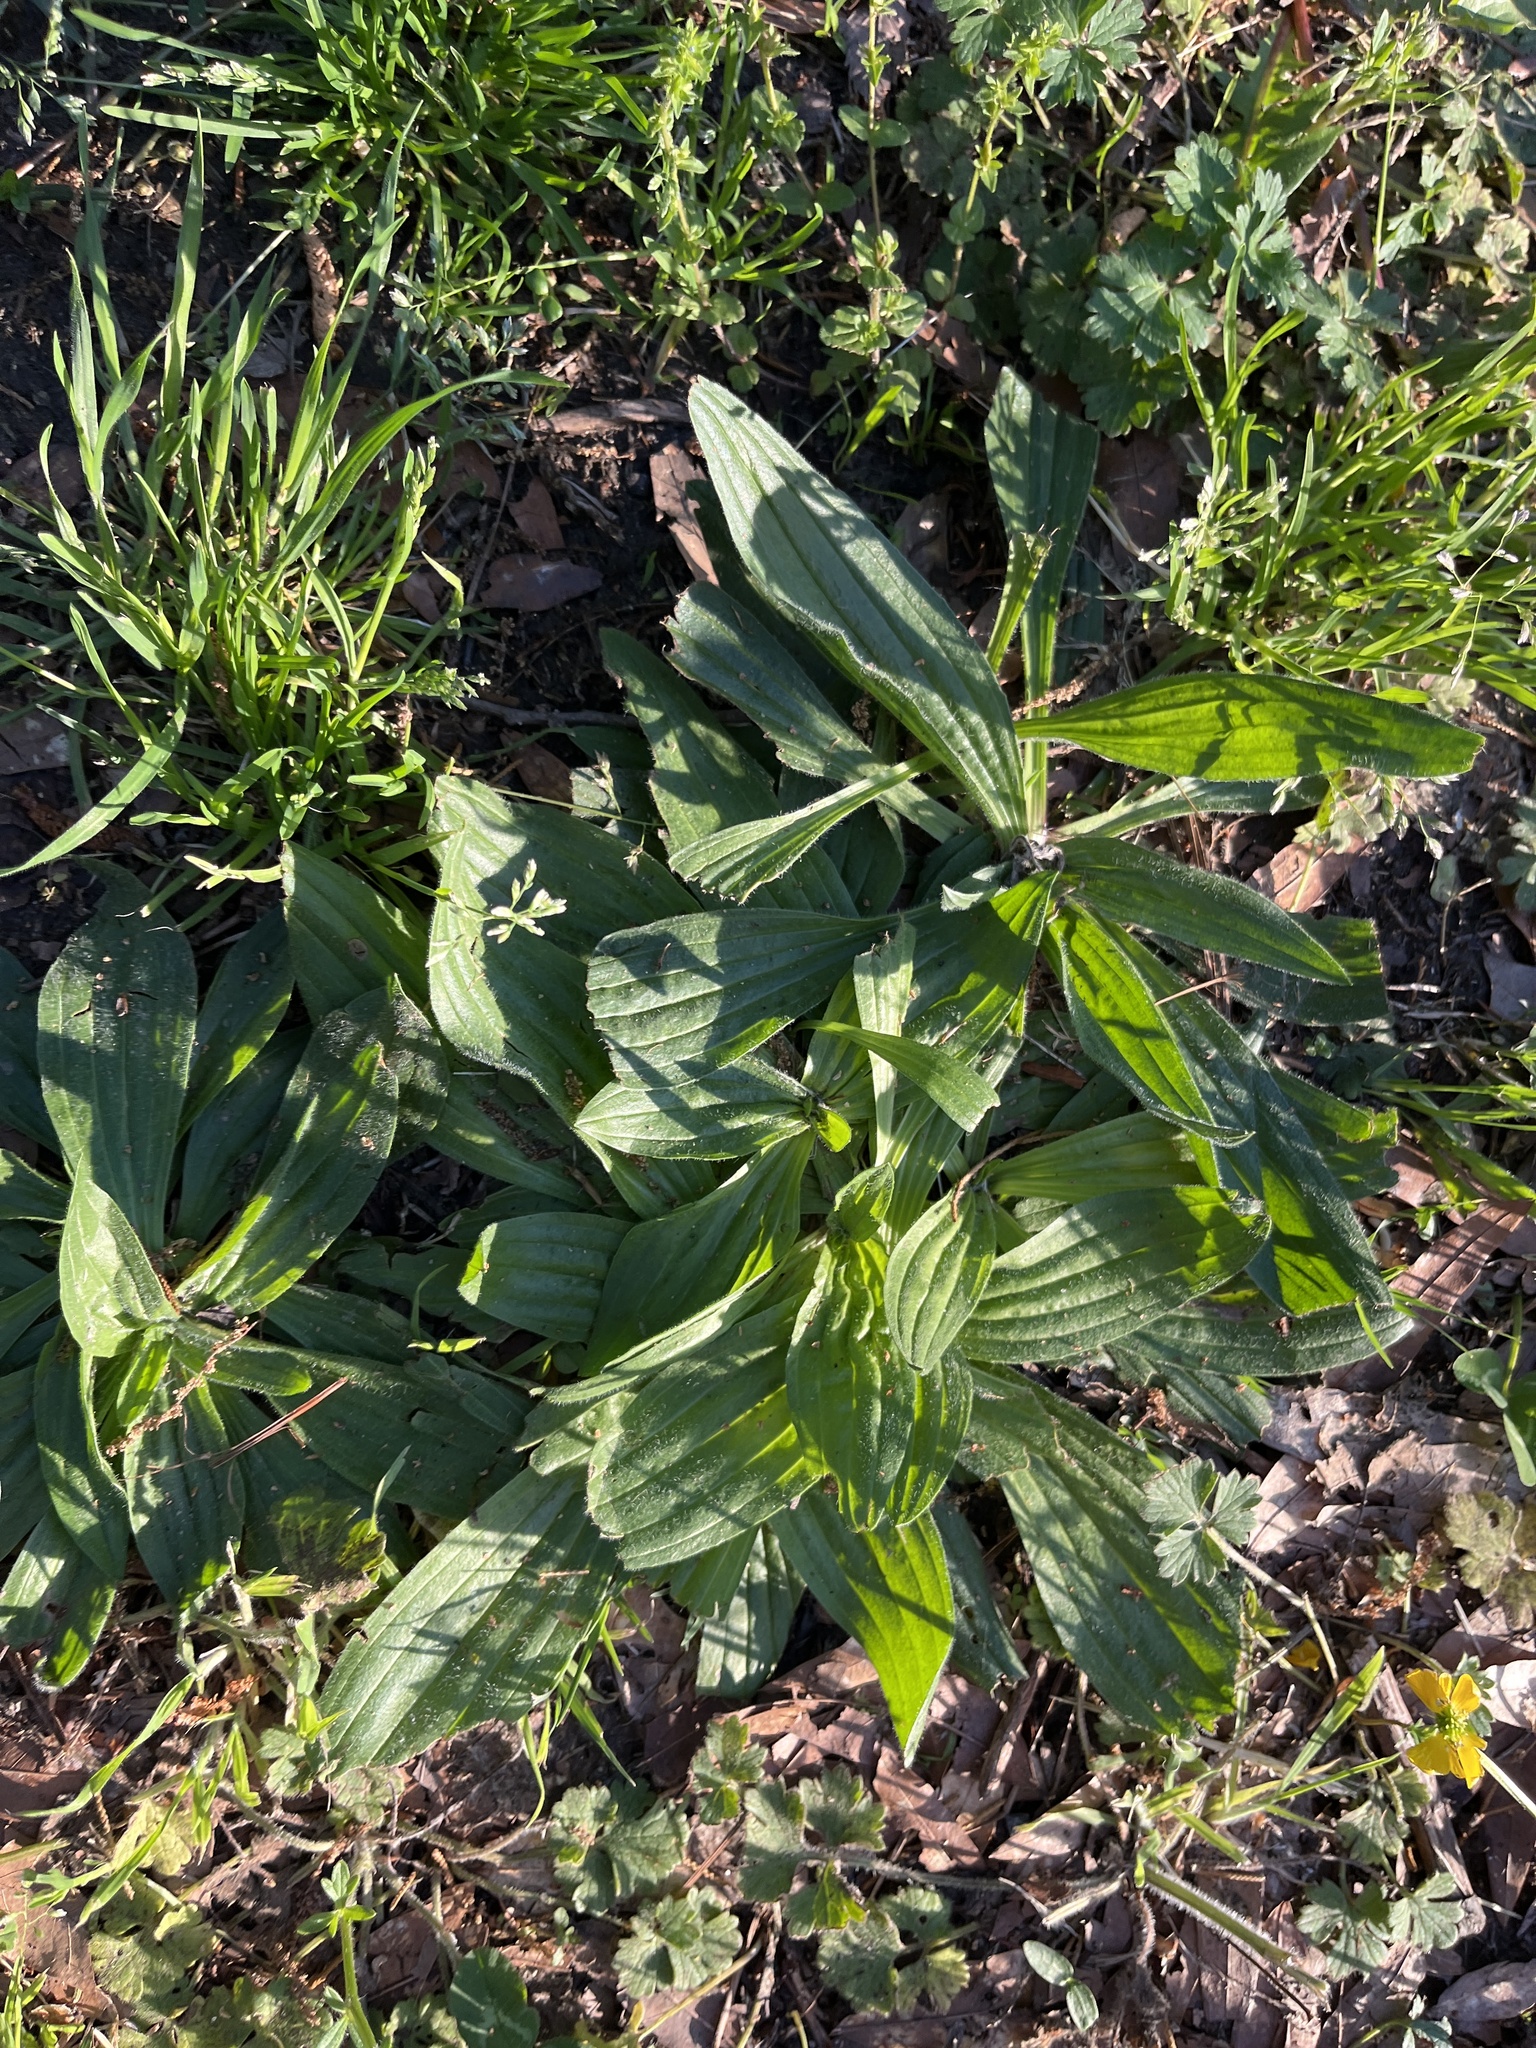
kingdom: Plantae
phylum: Tracheophyta
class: Magnoliopsida
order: Lamiales
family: Plantaginaceae
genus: Plantago
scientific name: Plantago lanceolata
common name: Ribwort plantain
